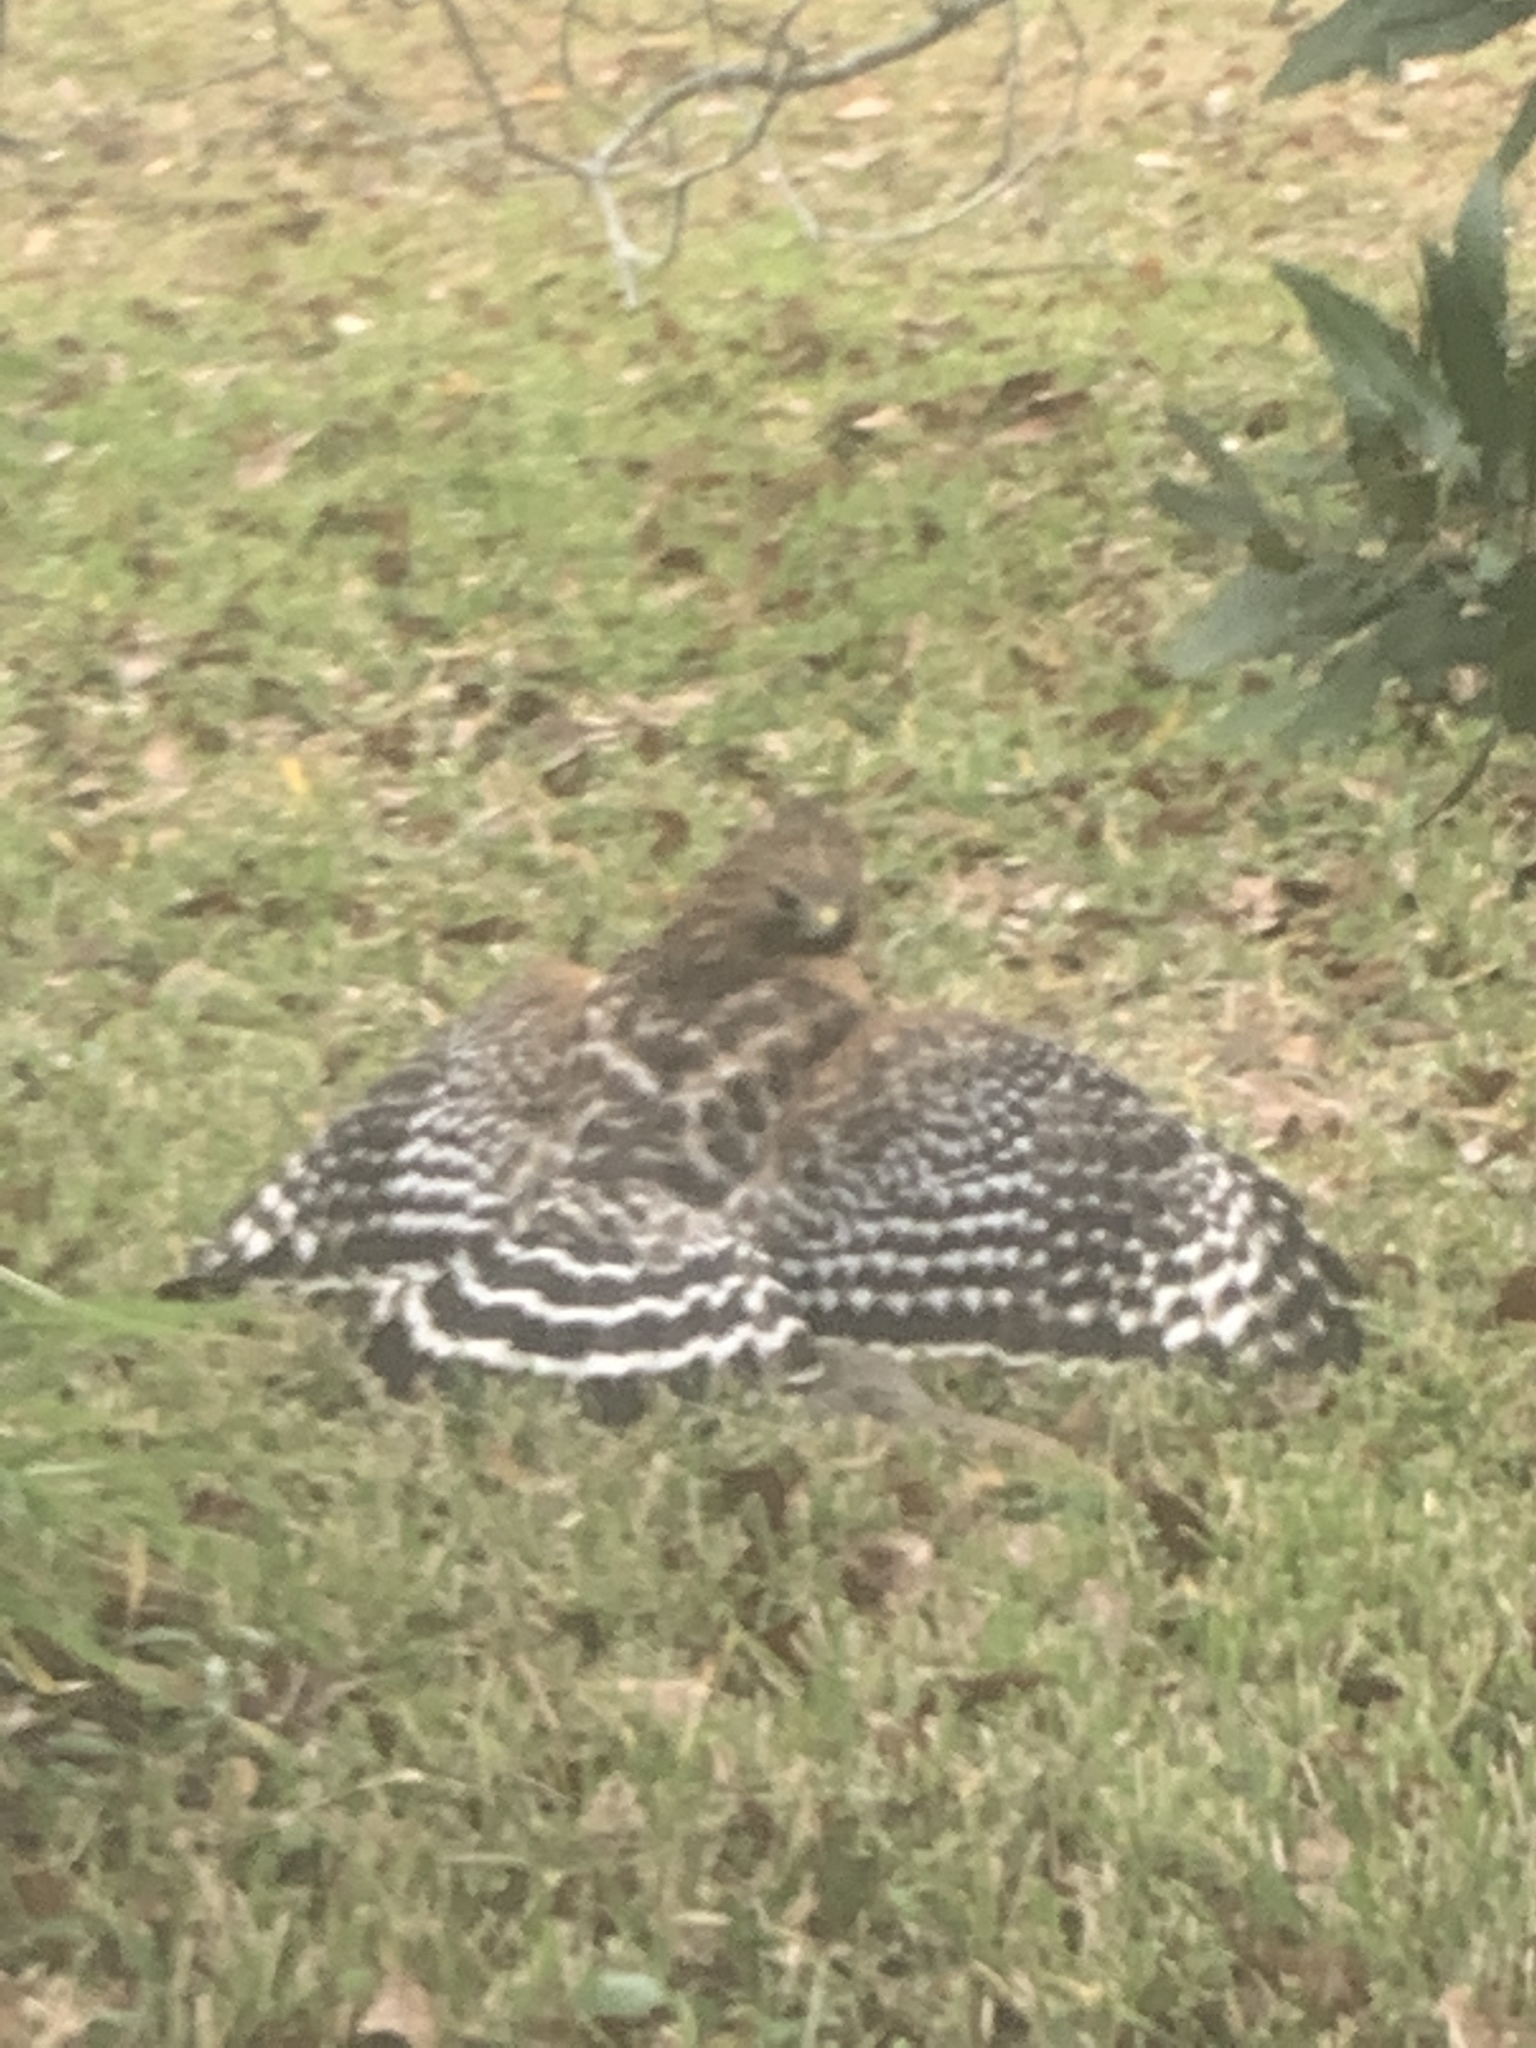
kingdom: Animalia
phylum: Chordata
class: Aves
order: Accipitriformes
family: Accipitridae
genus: Buteo
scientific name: Buteo lineatus
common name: Red-shouldered hawk
